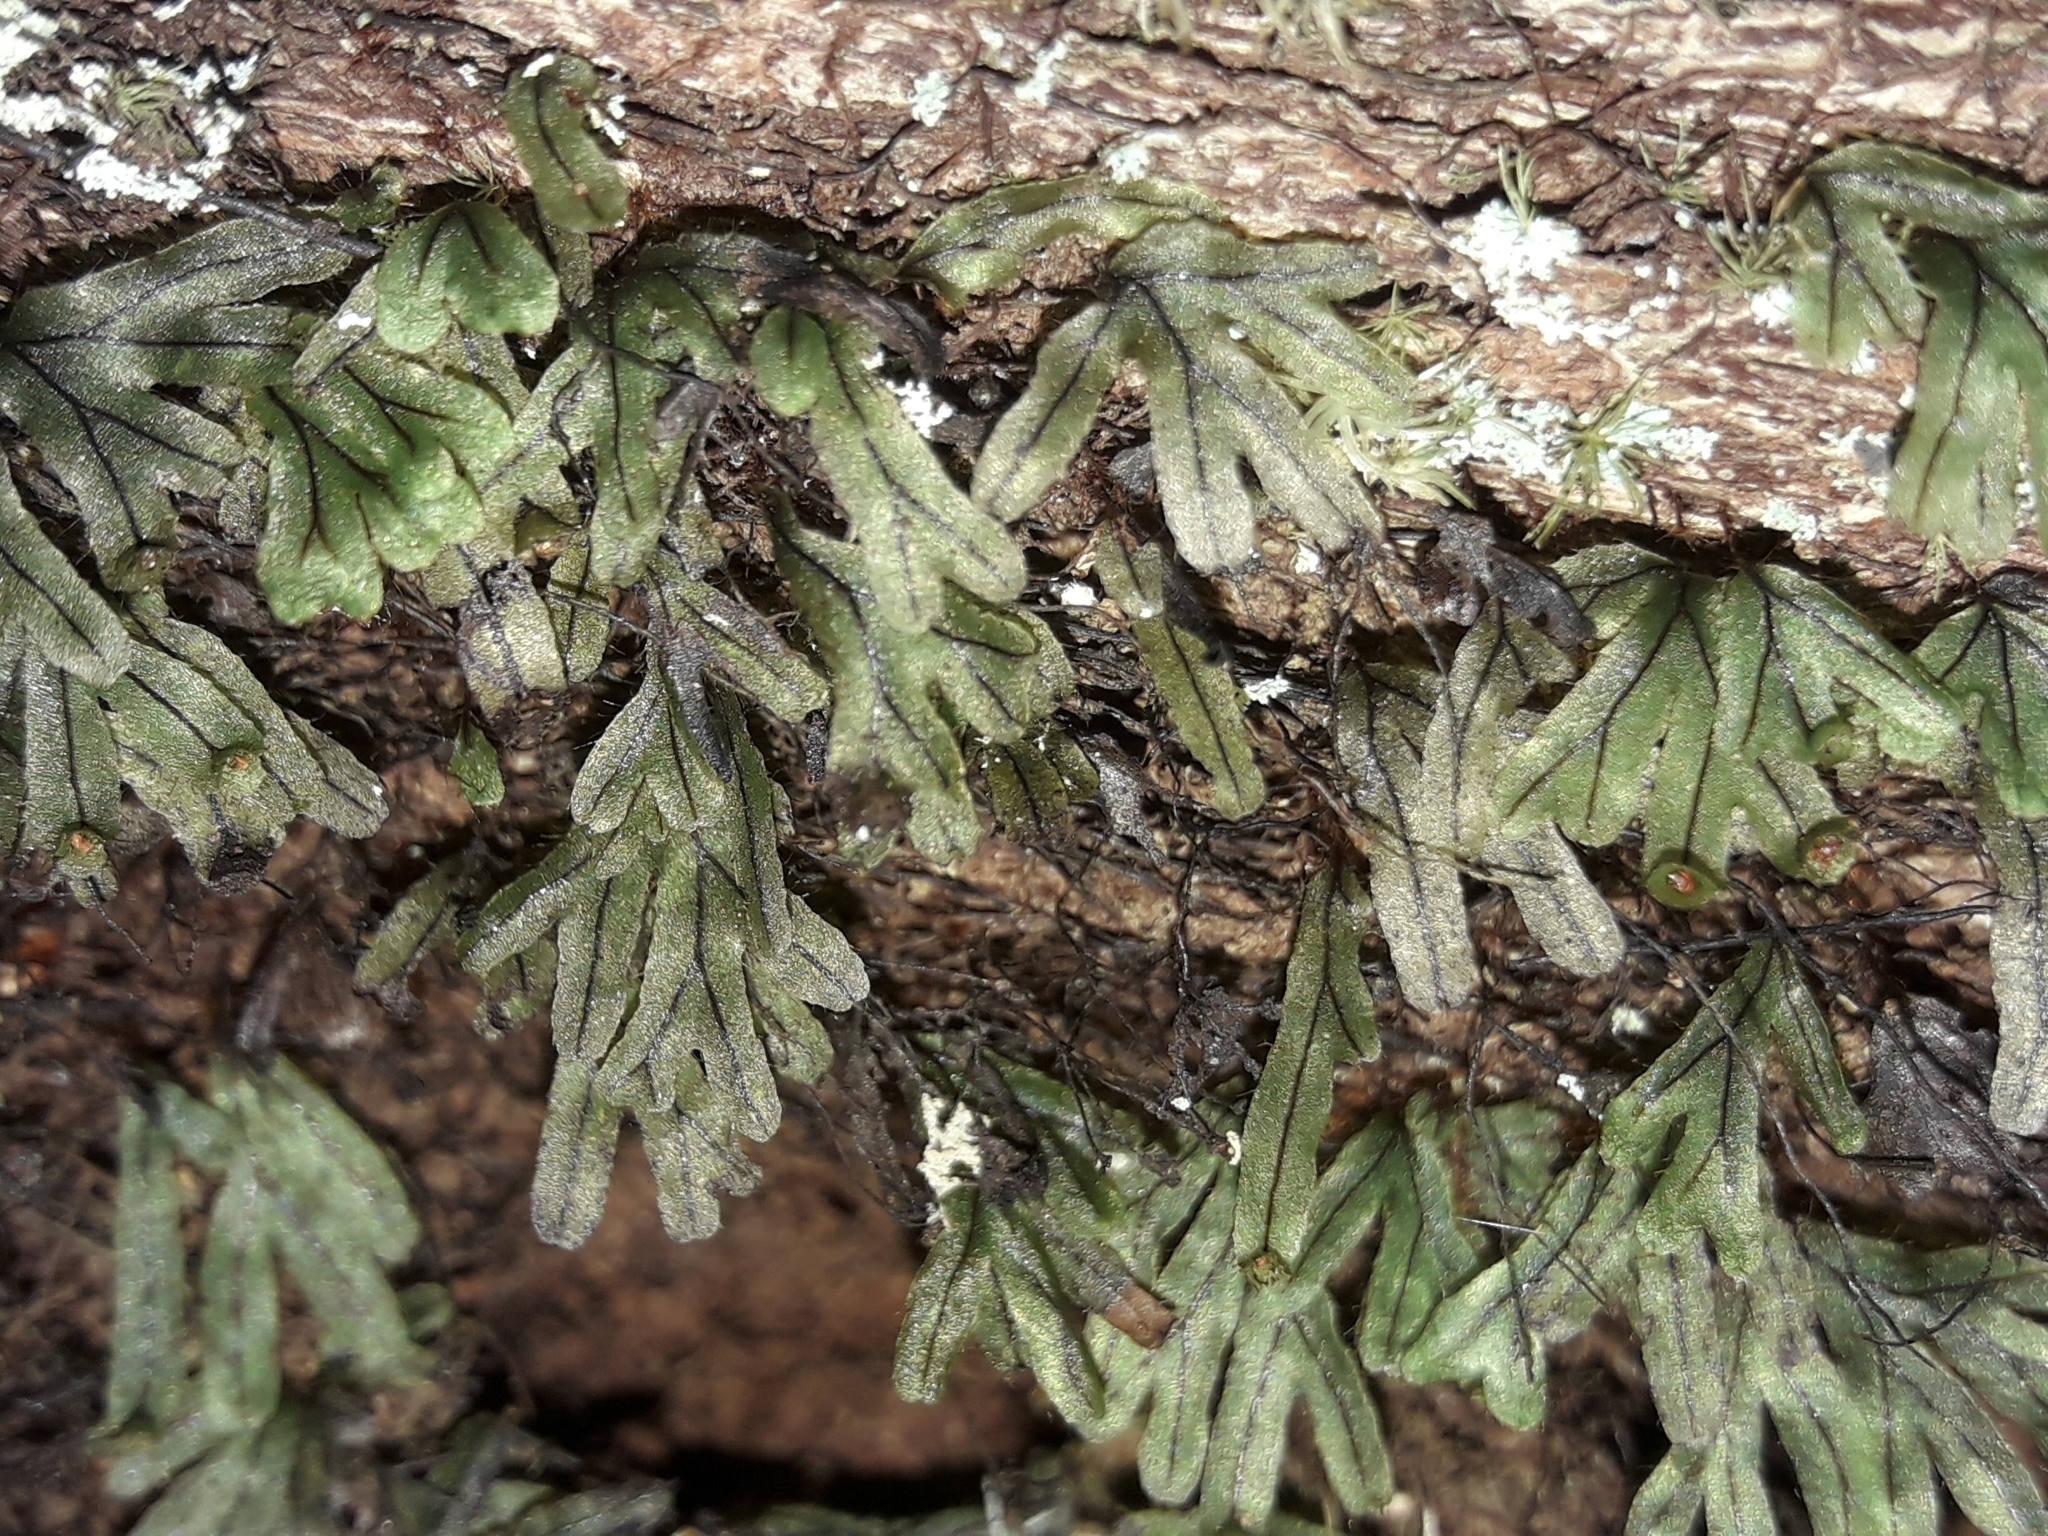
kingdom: Plantae
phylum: Tracheophyta
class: Polypodiopsida
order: Hymenophyllales
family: Hymenophyllaceae
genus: Hymenophyllum
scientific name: Hymenophyllum neocaledonicum
